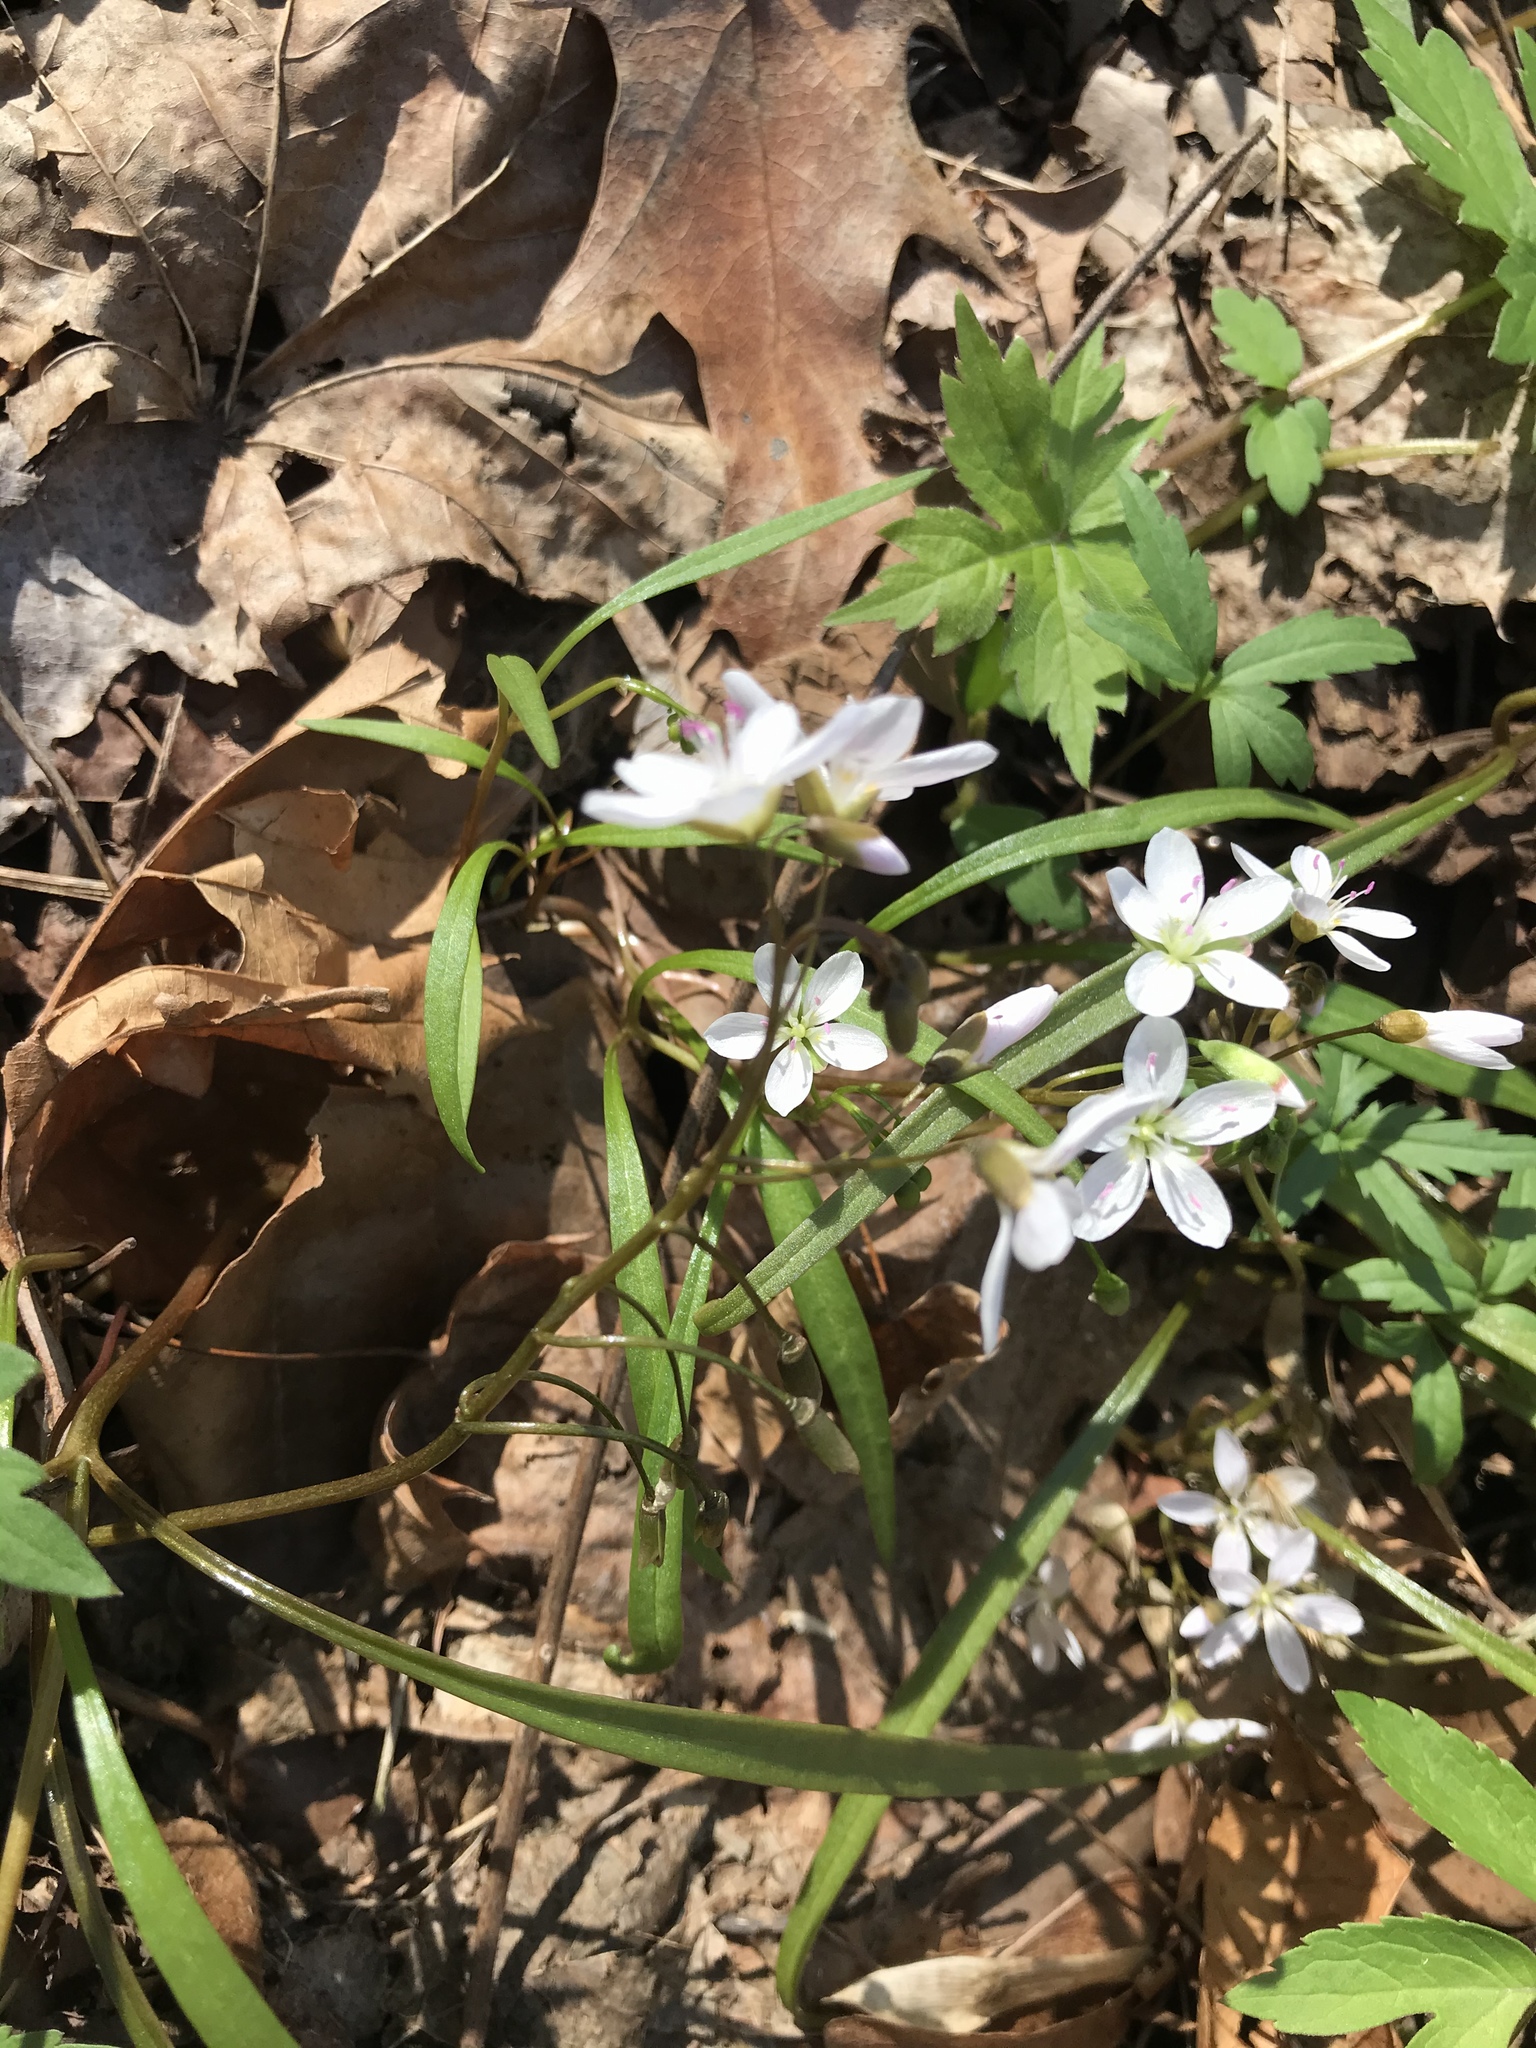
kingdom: Plantae
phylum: Tracheophyta
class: Magnoliopsida
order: Caryophyllales
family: Montiaceae
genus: Claytonia
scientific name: Claytonia virginica
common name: Virginia springbeauty
